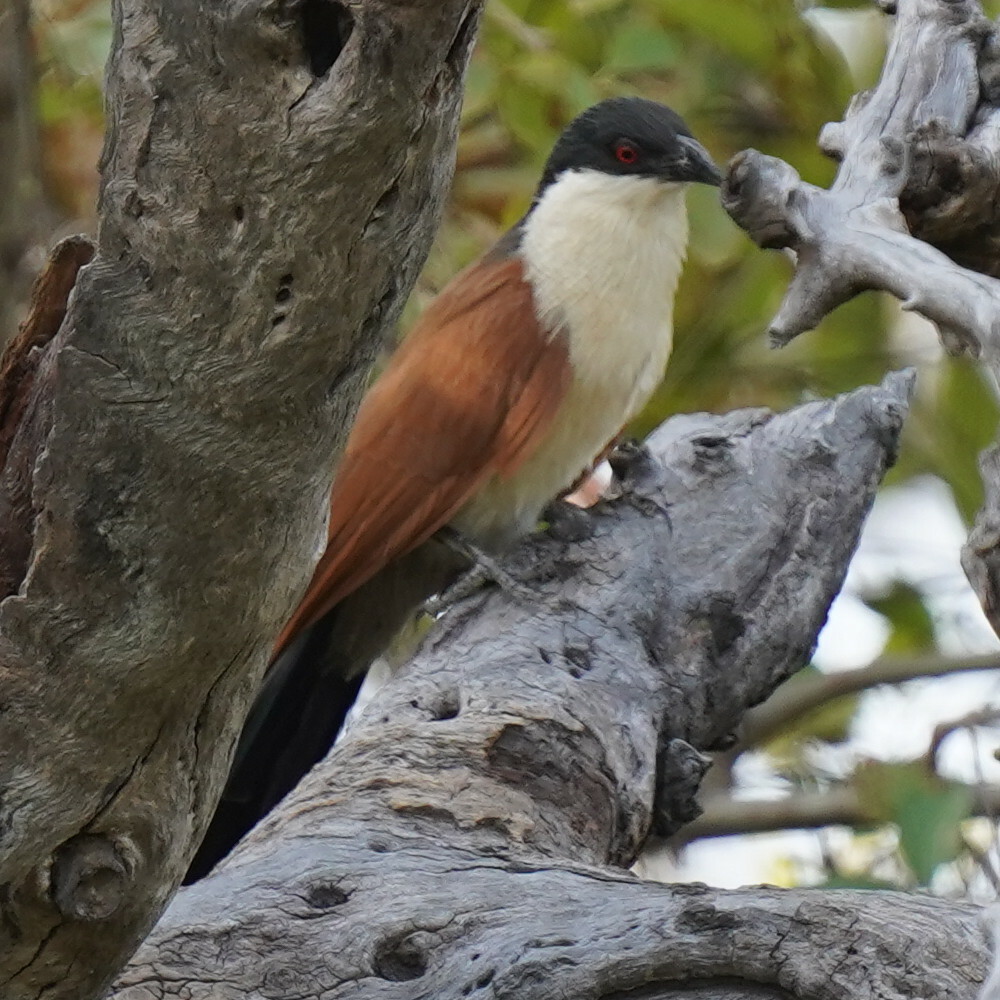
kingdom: Animalia
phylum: Chordata
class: Aves
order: Cuculiformes
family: Cuculidae
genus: Centropus
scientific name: Centropus senegalensis
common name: Senegal coucal
